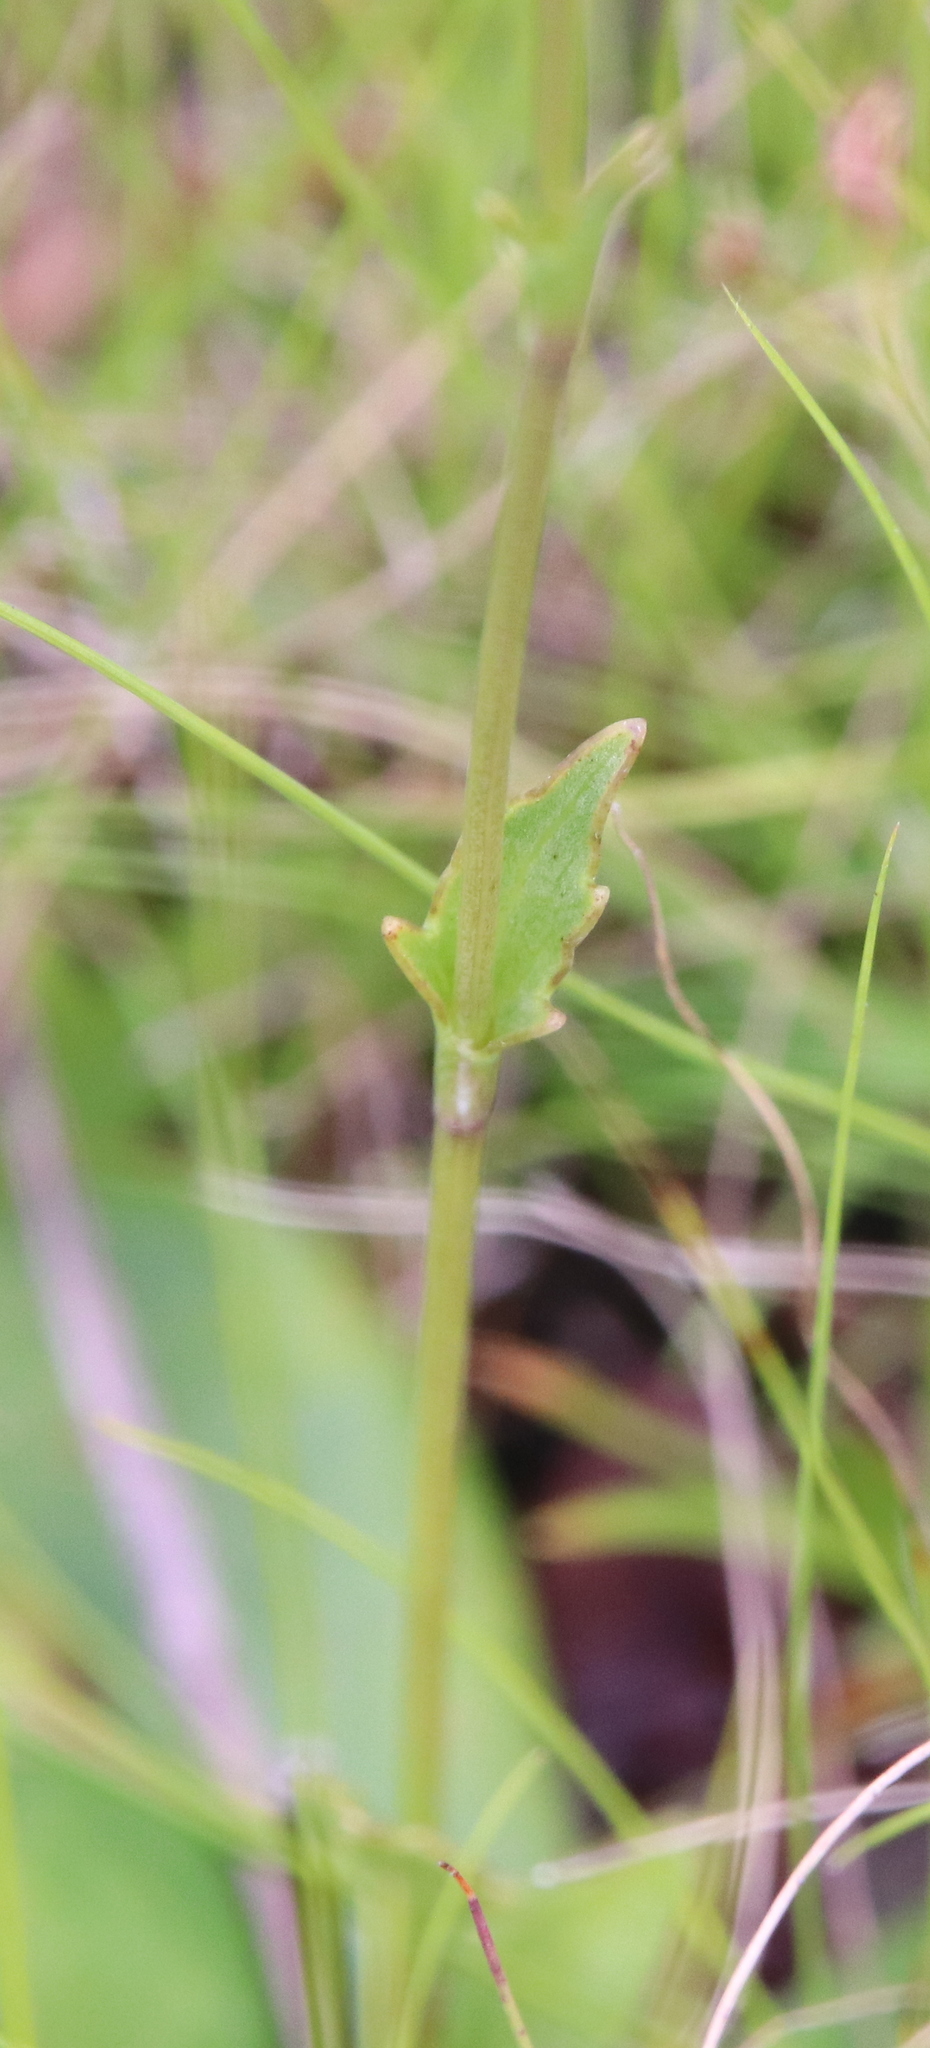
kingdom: Plantae
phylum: Tracheophyta
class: Magnoliopsida
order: Apiales
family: Apiaceae
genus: Eryngium
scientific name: Eryngium integrifolium
